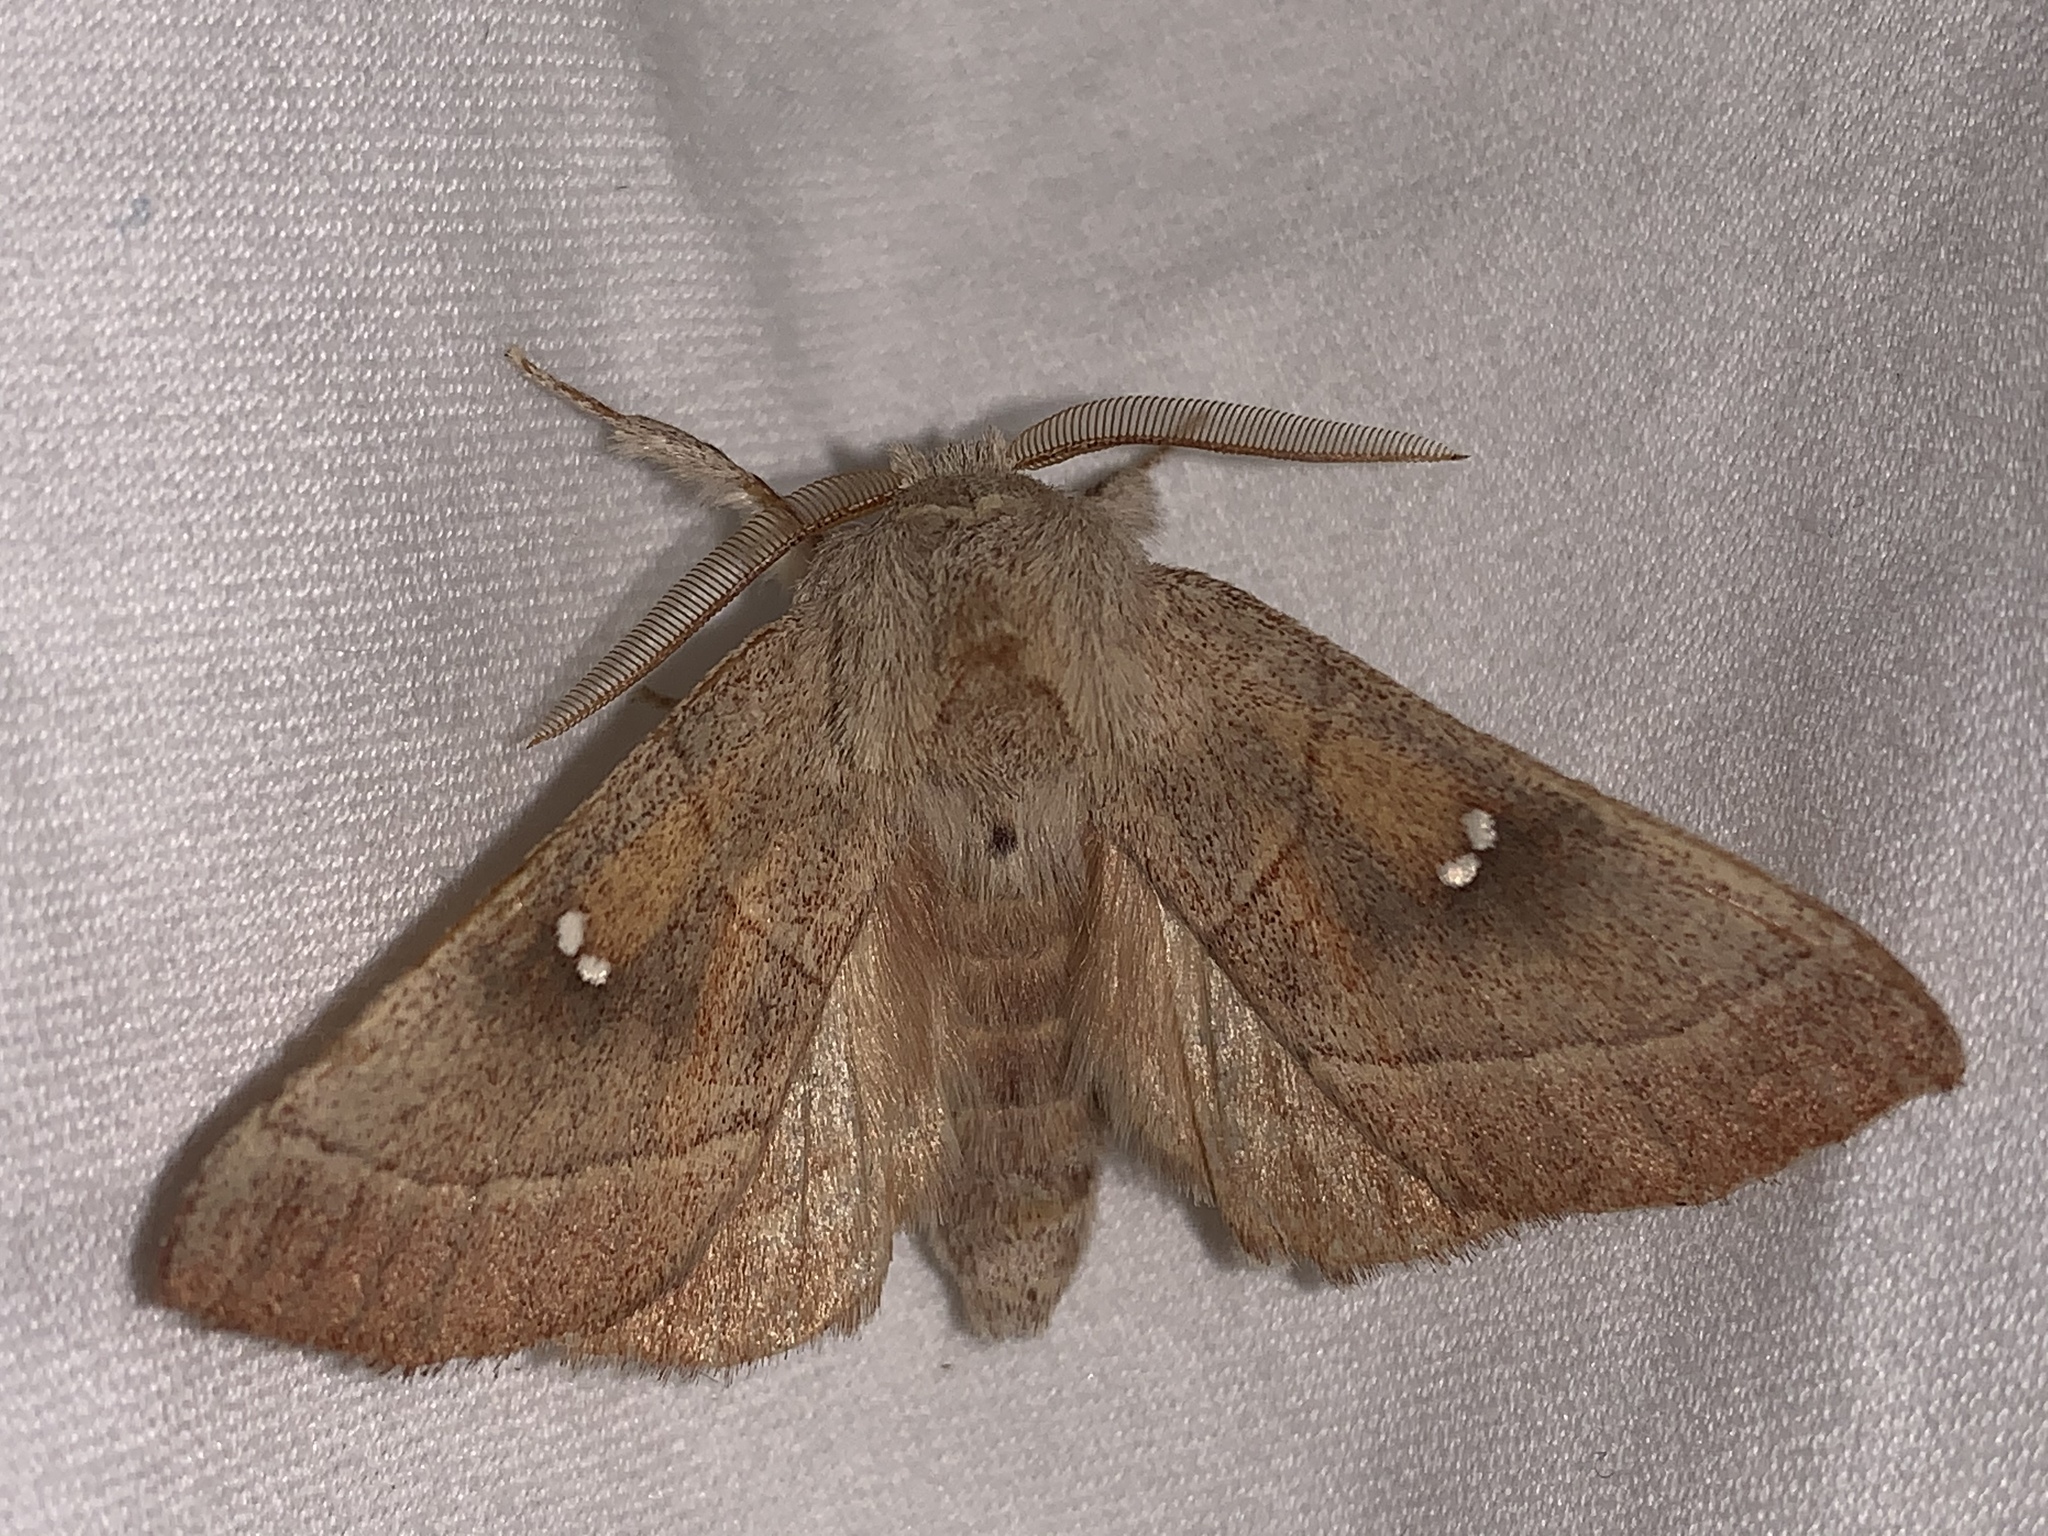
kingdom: Animalia
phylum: Arthropoda
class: Insecta
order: Lepidoptera
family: Notodontidae
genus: Nadata
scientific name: Nadata gibbosa
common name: White-dotted prominent
